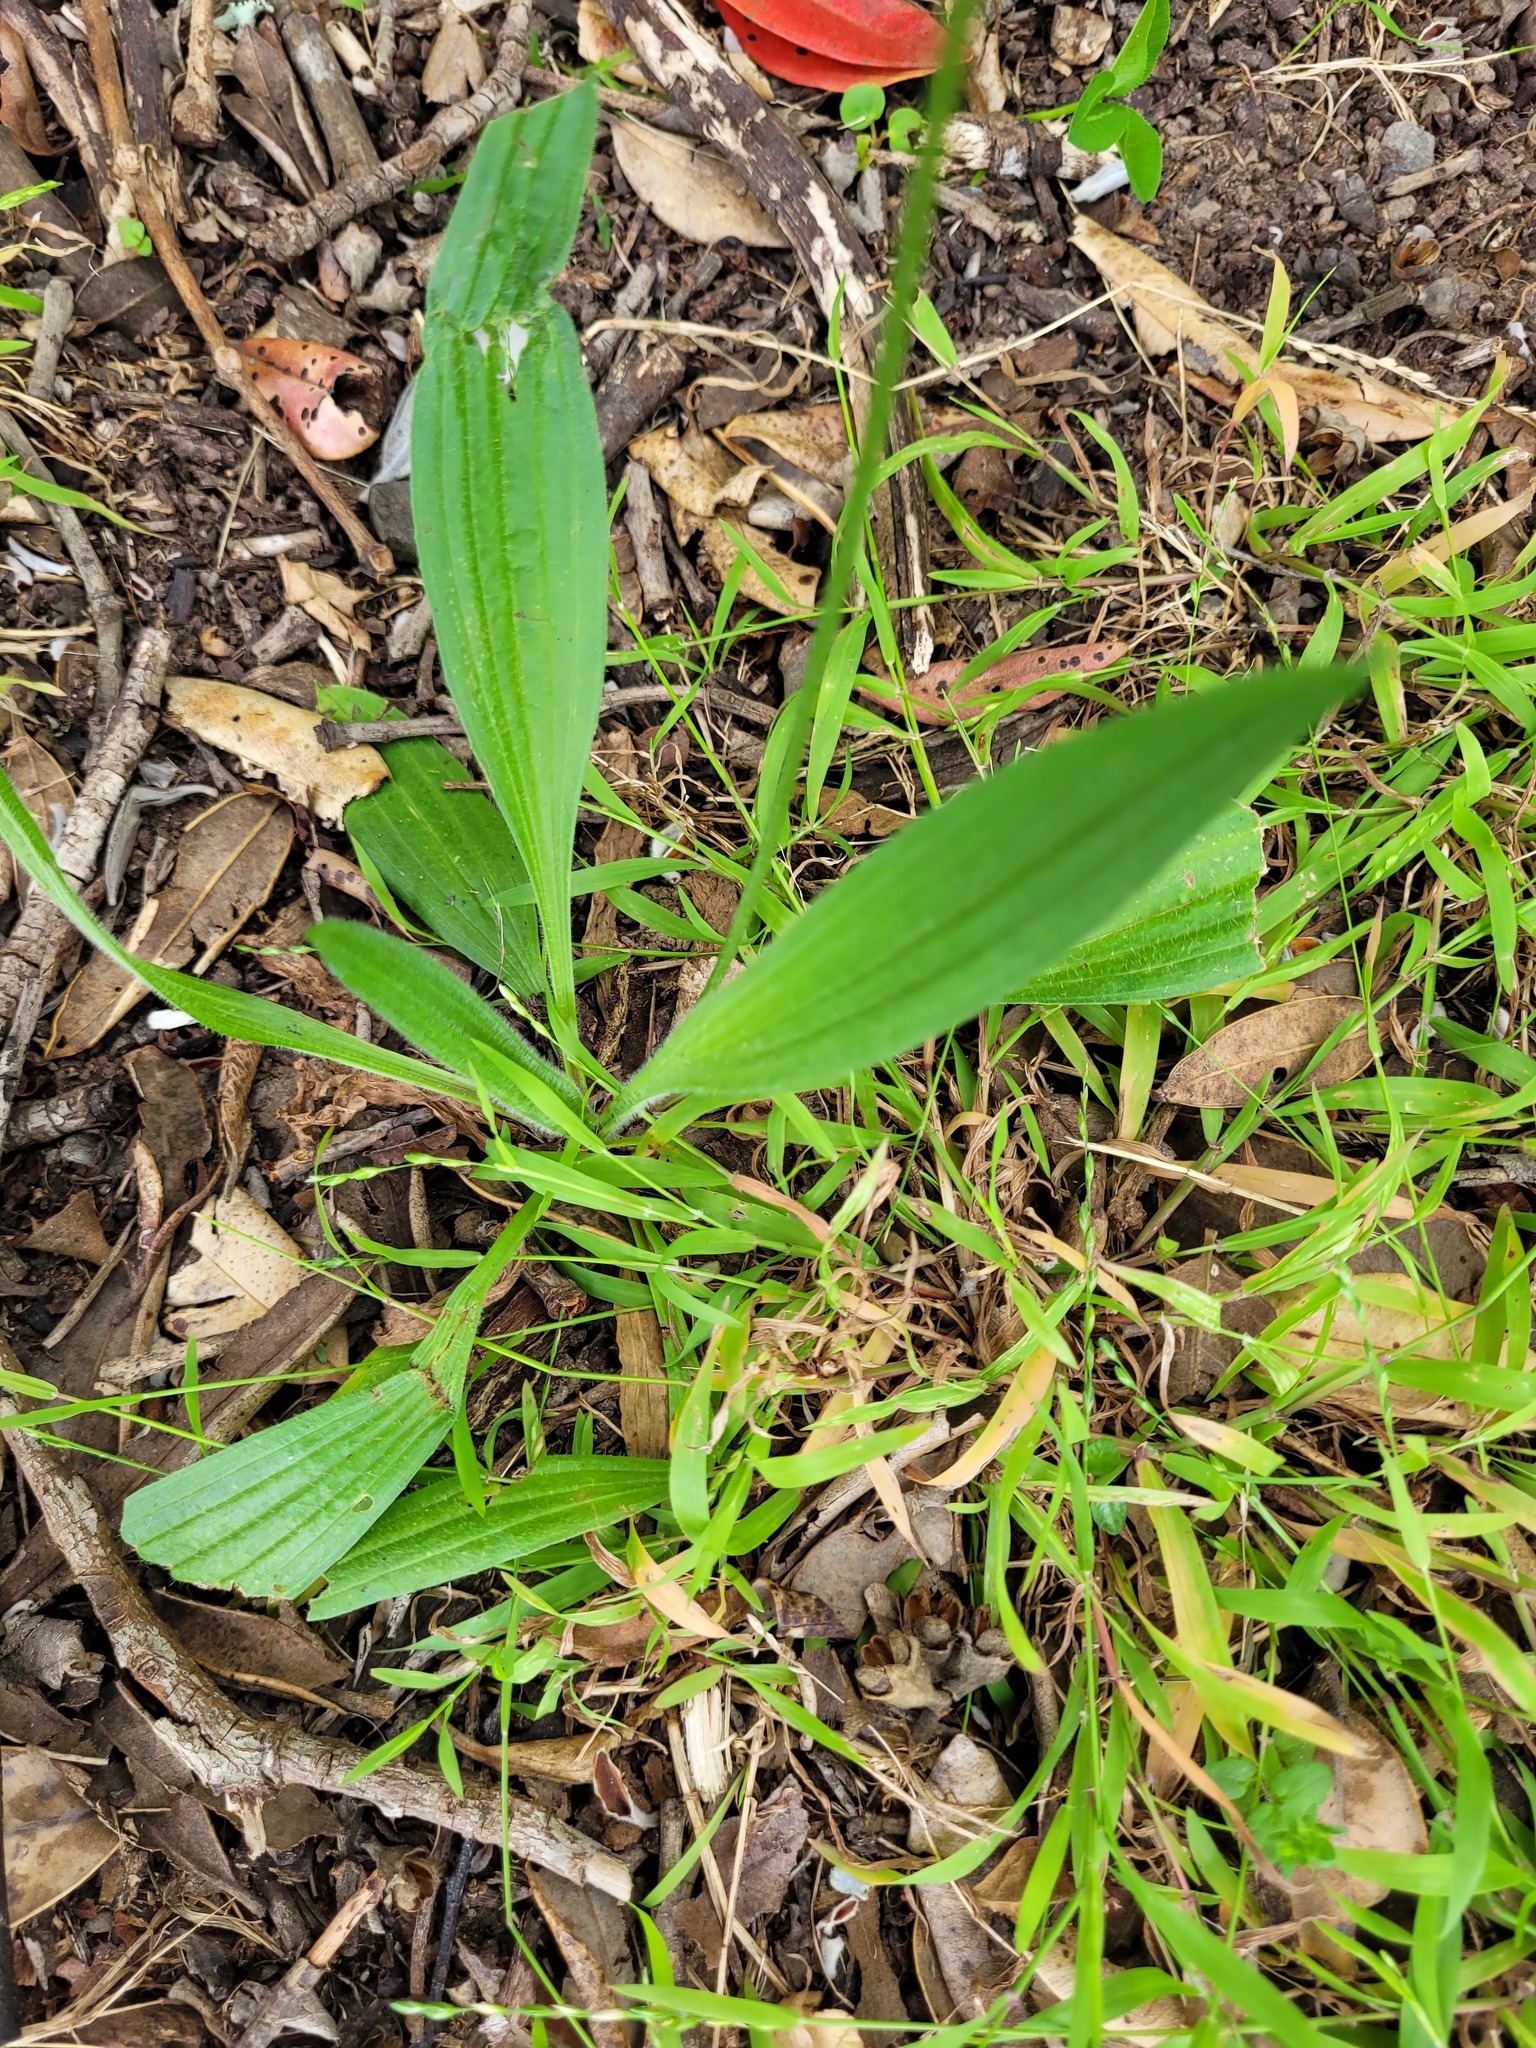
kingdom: Plantae
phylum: Tracheophyta
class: Magnoliopsida
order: Lamiales
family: Plantaginaceae
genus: Plantago
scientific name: Plantago lanceolata
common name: Ribwort plantain
